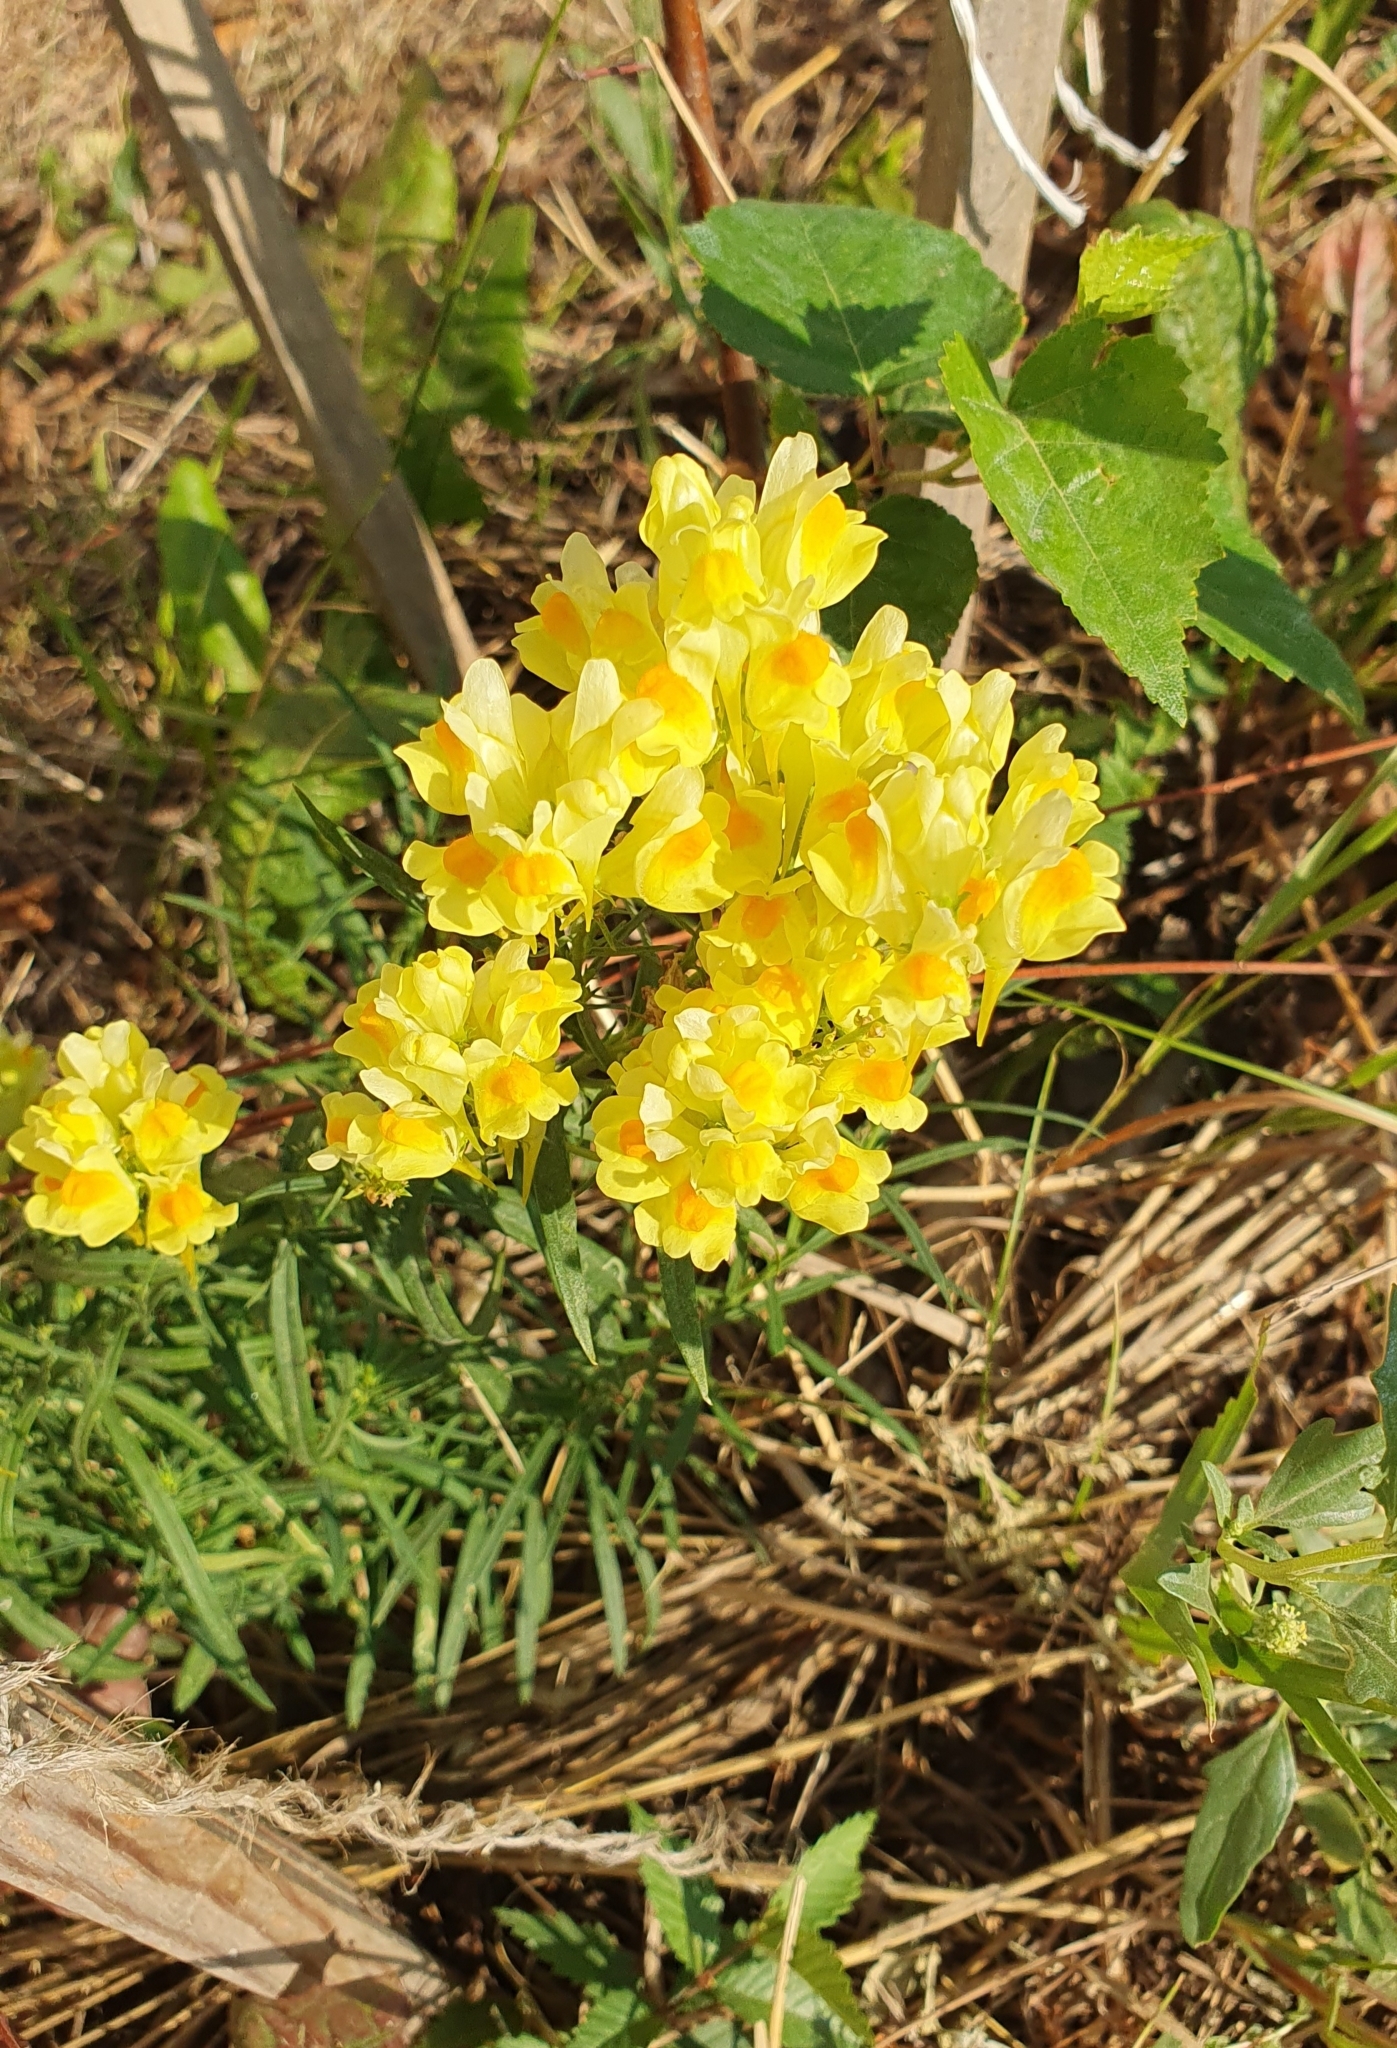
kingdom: Plantae
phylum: Tracheophyta
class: Magnoliopsida
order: Lamiales
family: Plantaginaceae
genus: Linaria
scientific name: Linaria vulgaris
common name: Butter and eggs
